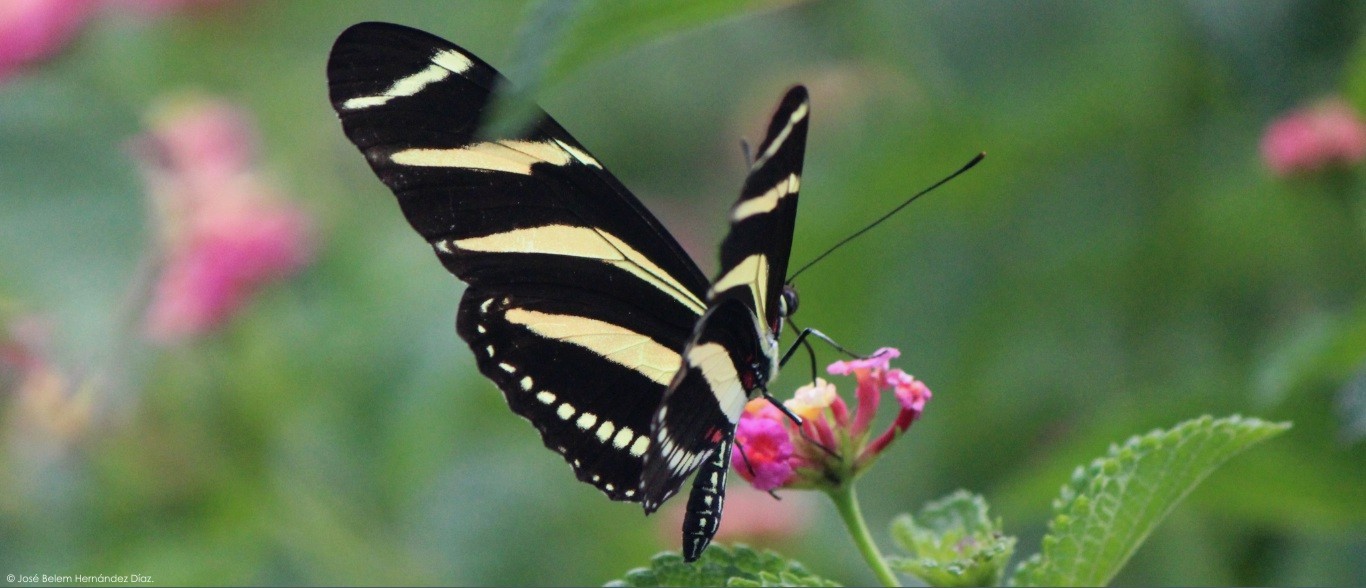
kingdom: Animalia
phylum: Arthropoda
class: Insecta
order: Lepidoptera
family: Nymphalidae
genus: Heliconius
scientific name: Heliconius charithonia
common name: Zebra long wing
